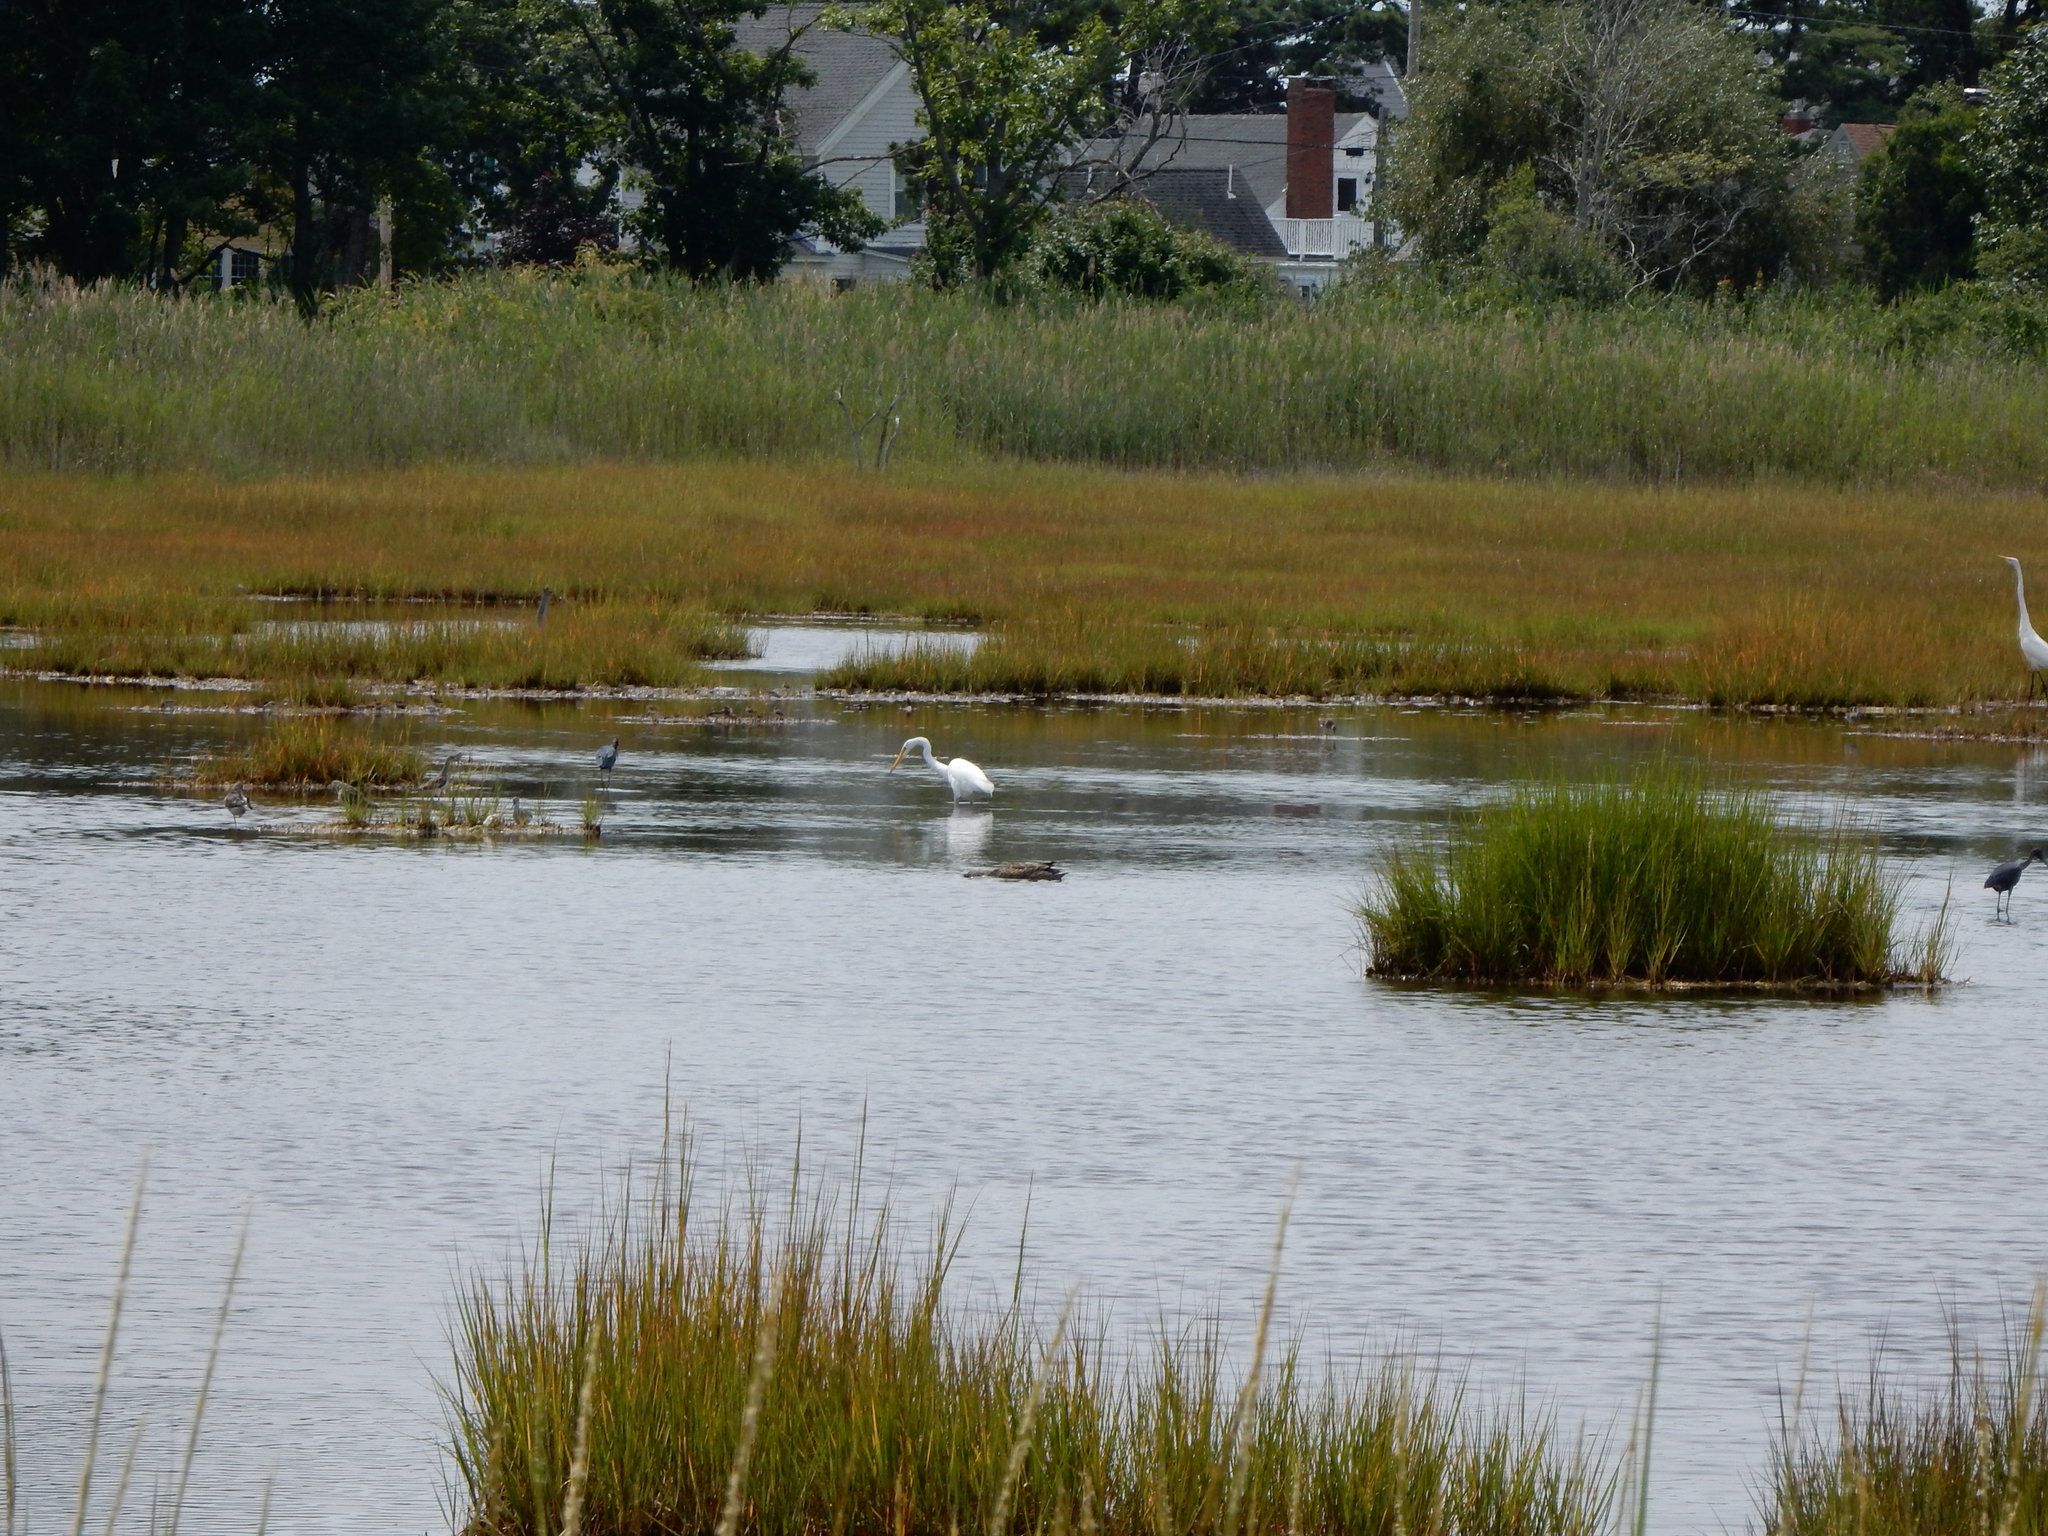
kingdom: Animalia
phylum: Chordata
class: Aves
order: Pelecaniformes
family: Ardeidae
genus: Ardea
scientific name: Ardea alba
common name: Great egret
